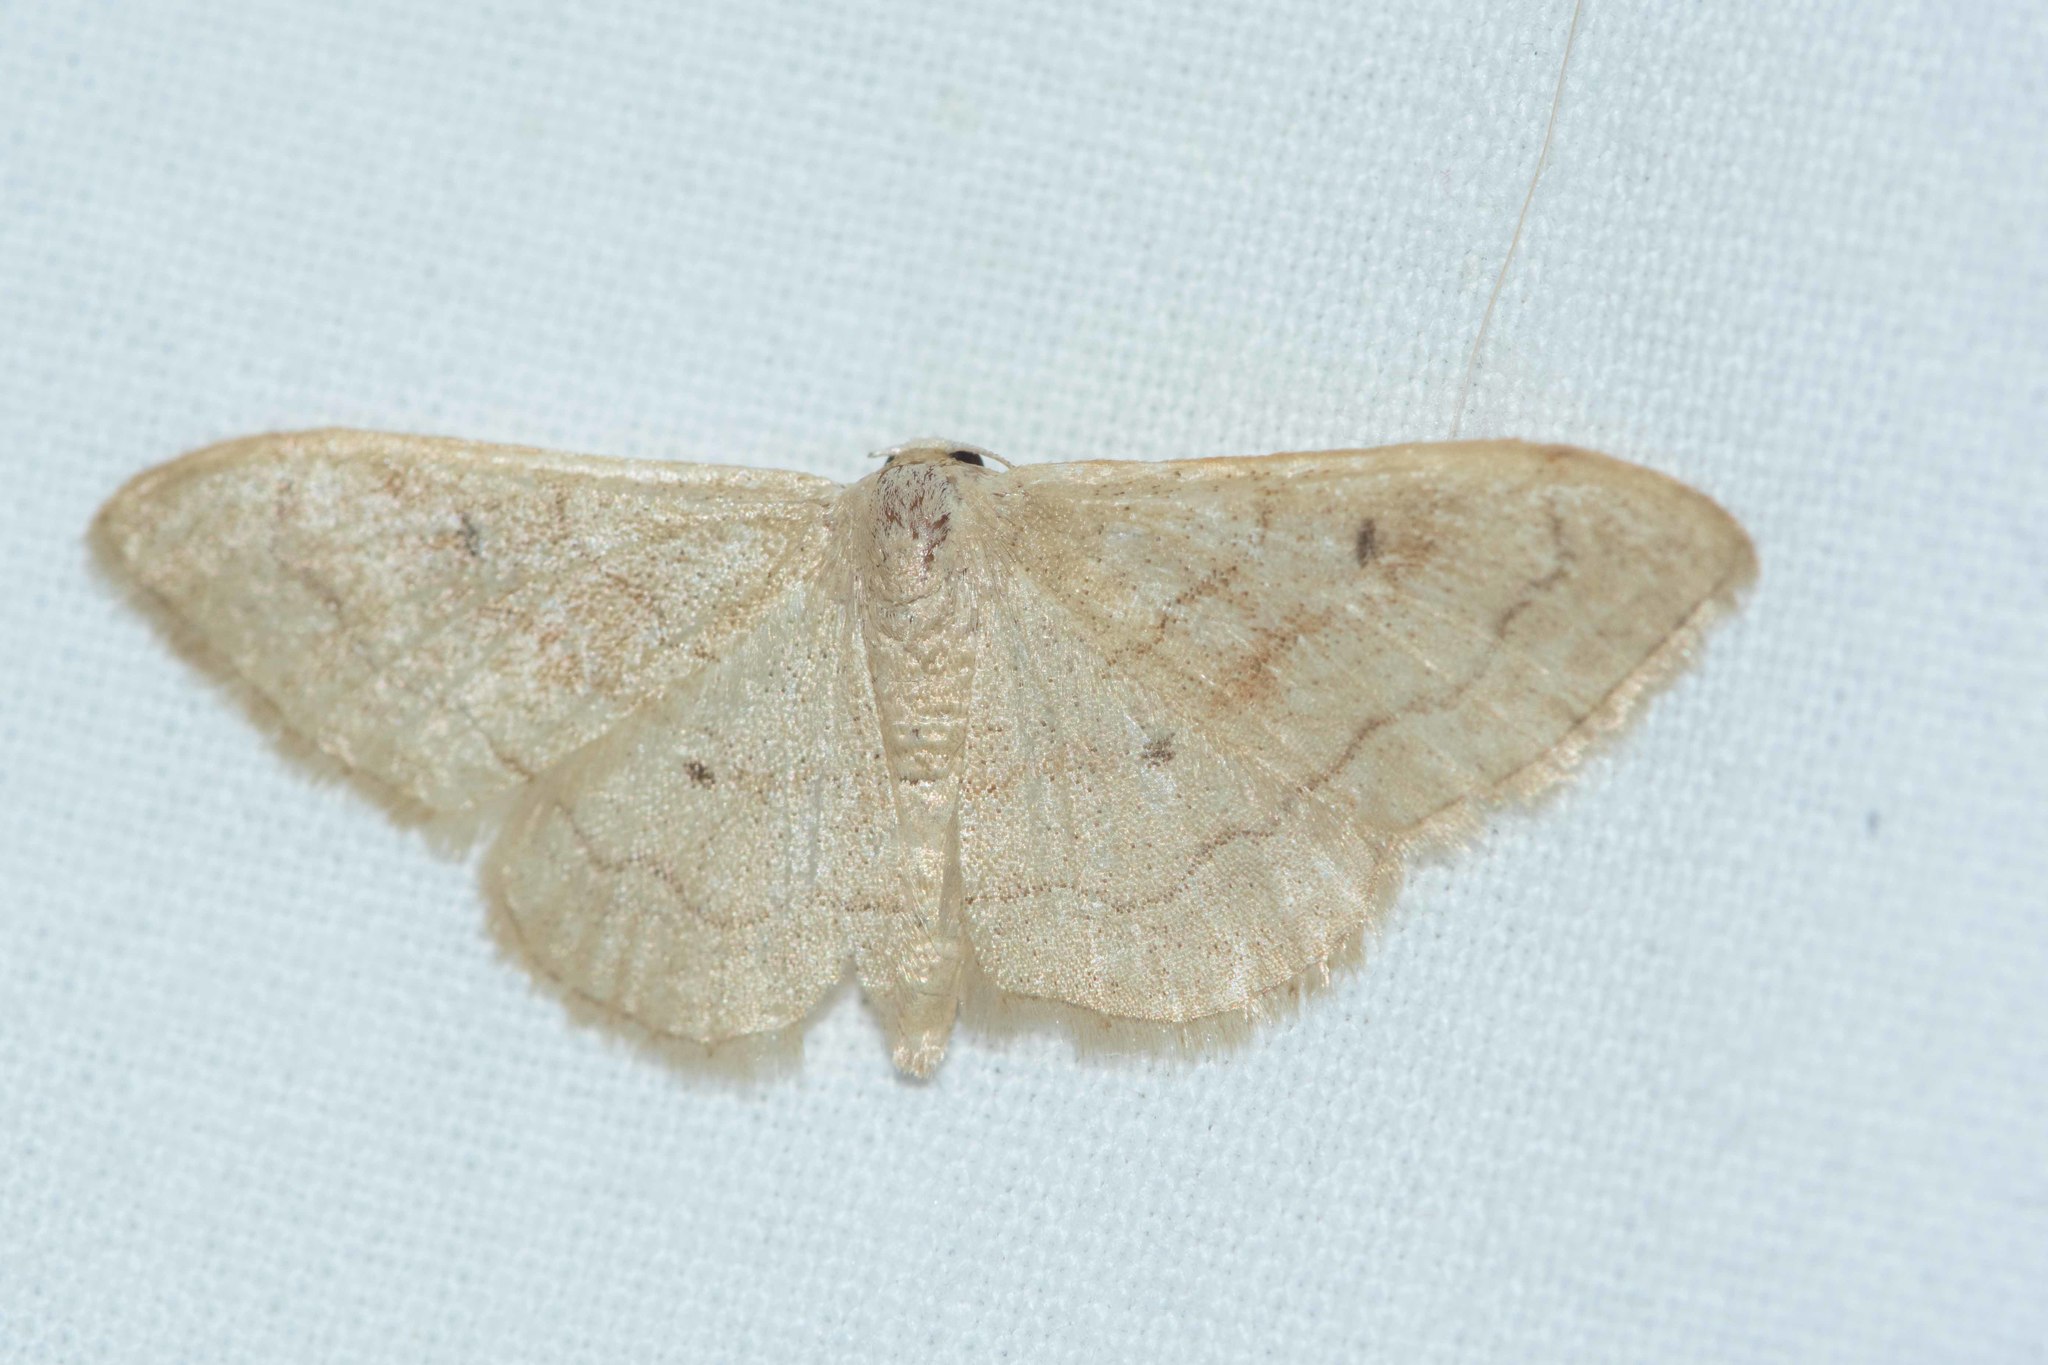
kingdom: Animalia
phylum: Arthropoda
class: Insecta
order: Lepidoptera
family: Geometridae
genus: Idaea
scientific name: Idaea bilinearia
